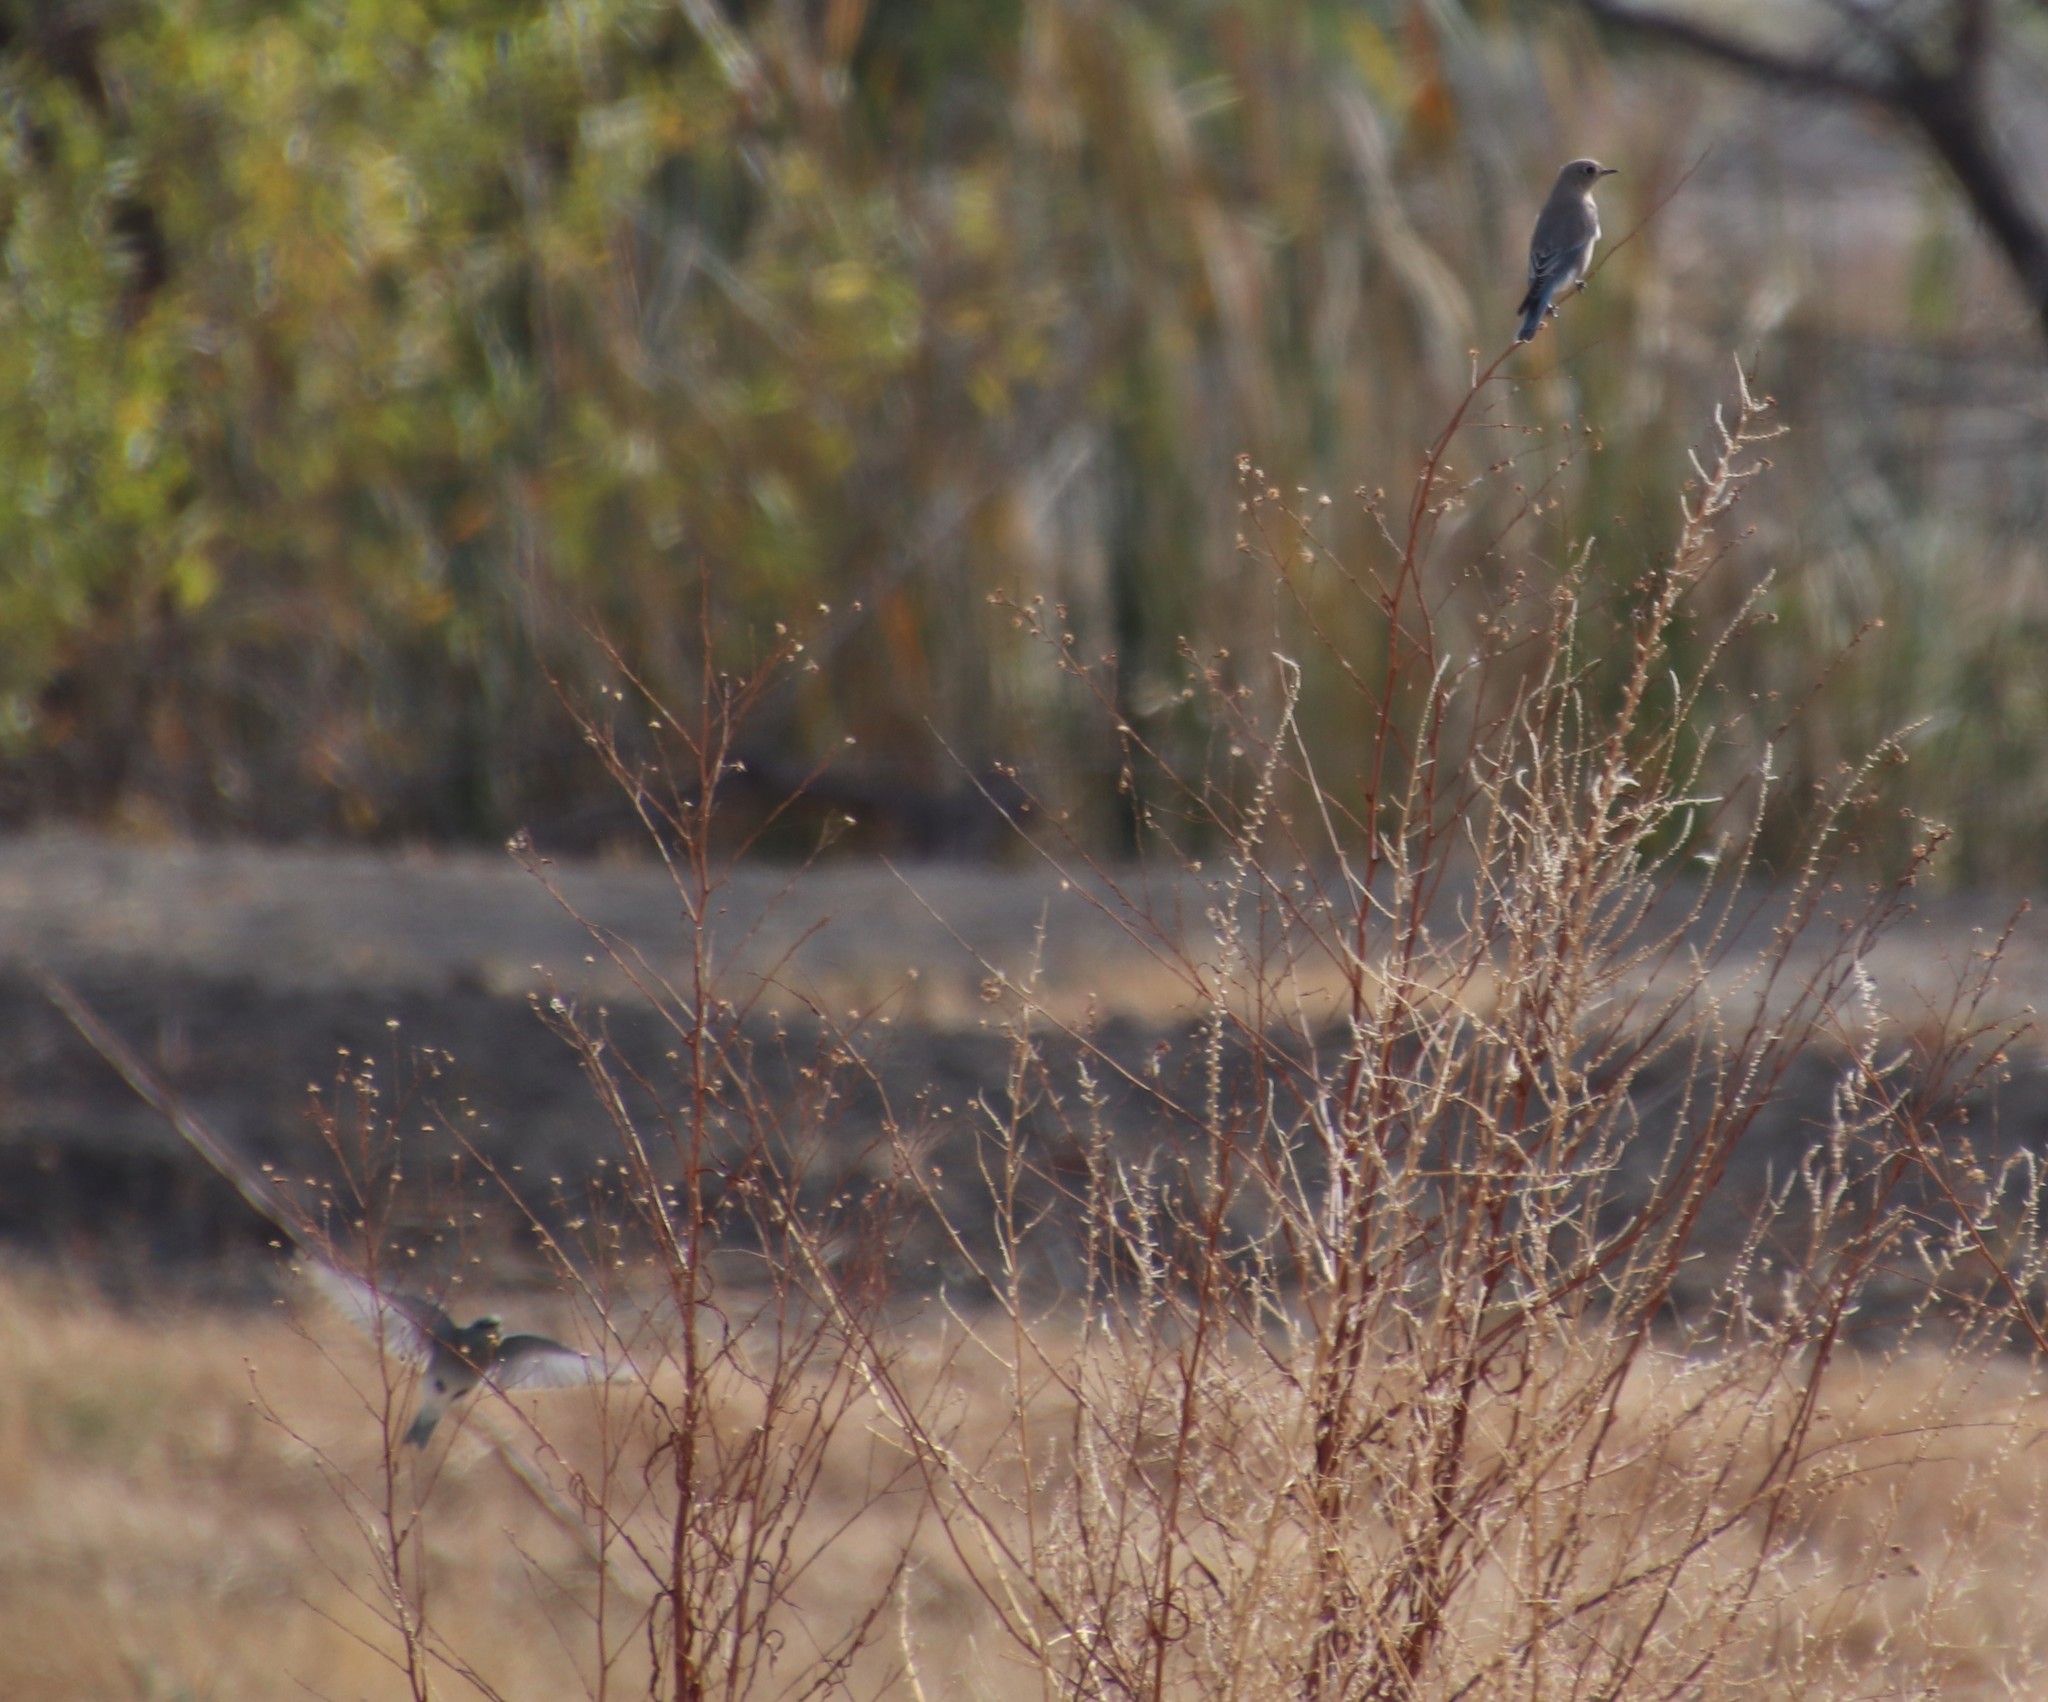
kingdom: Animalia
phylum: Chordata
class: Aves
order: Passeriformes
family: Turdidae
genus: Sialia
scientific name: Sialia currucoides
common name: Mountain bluebird
